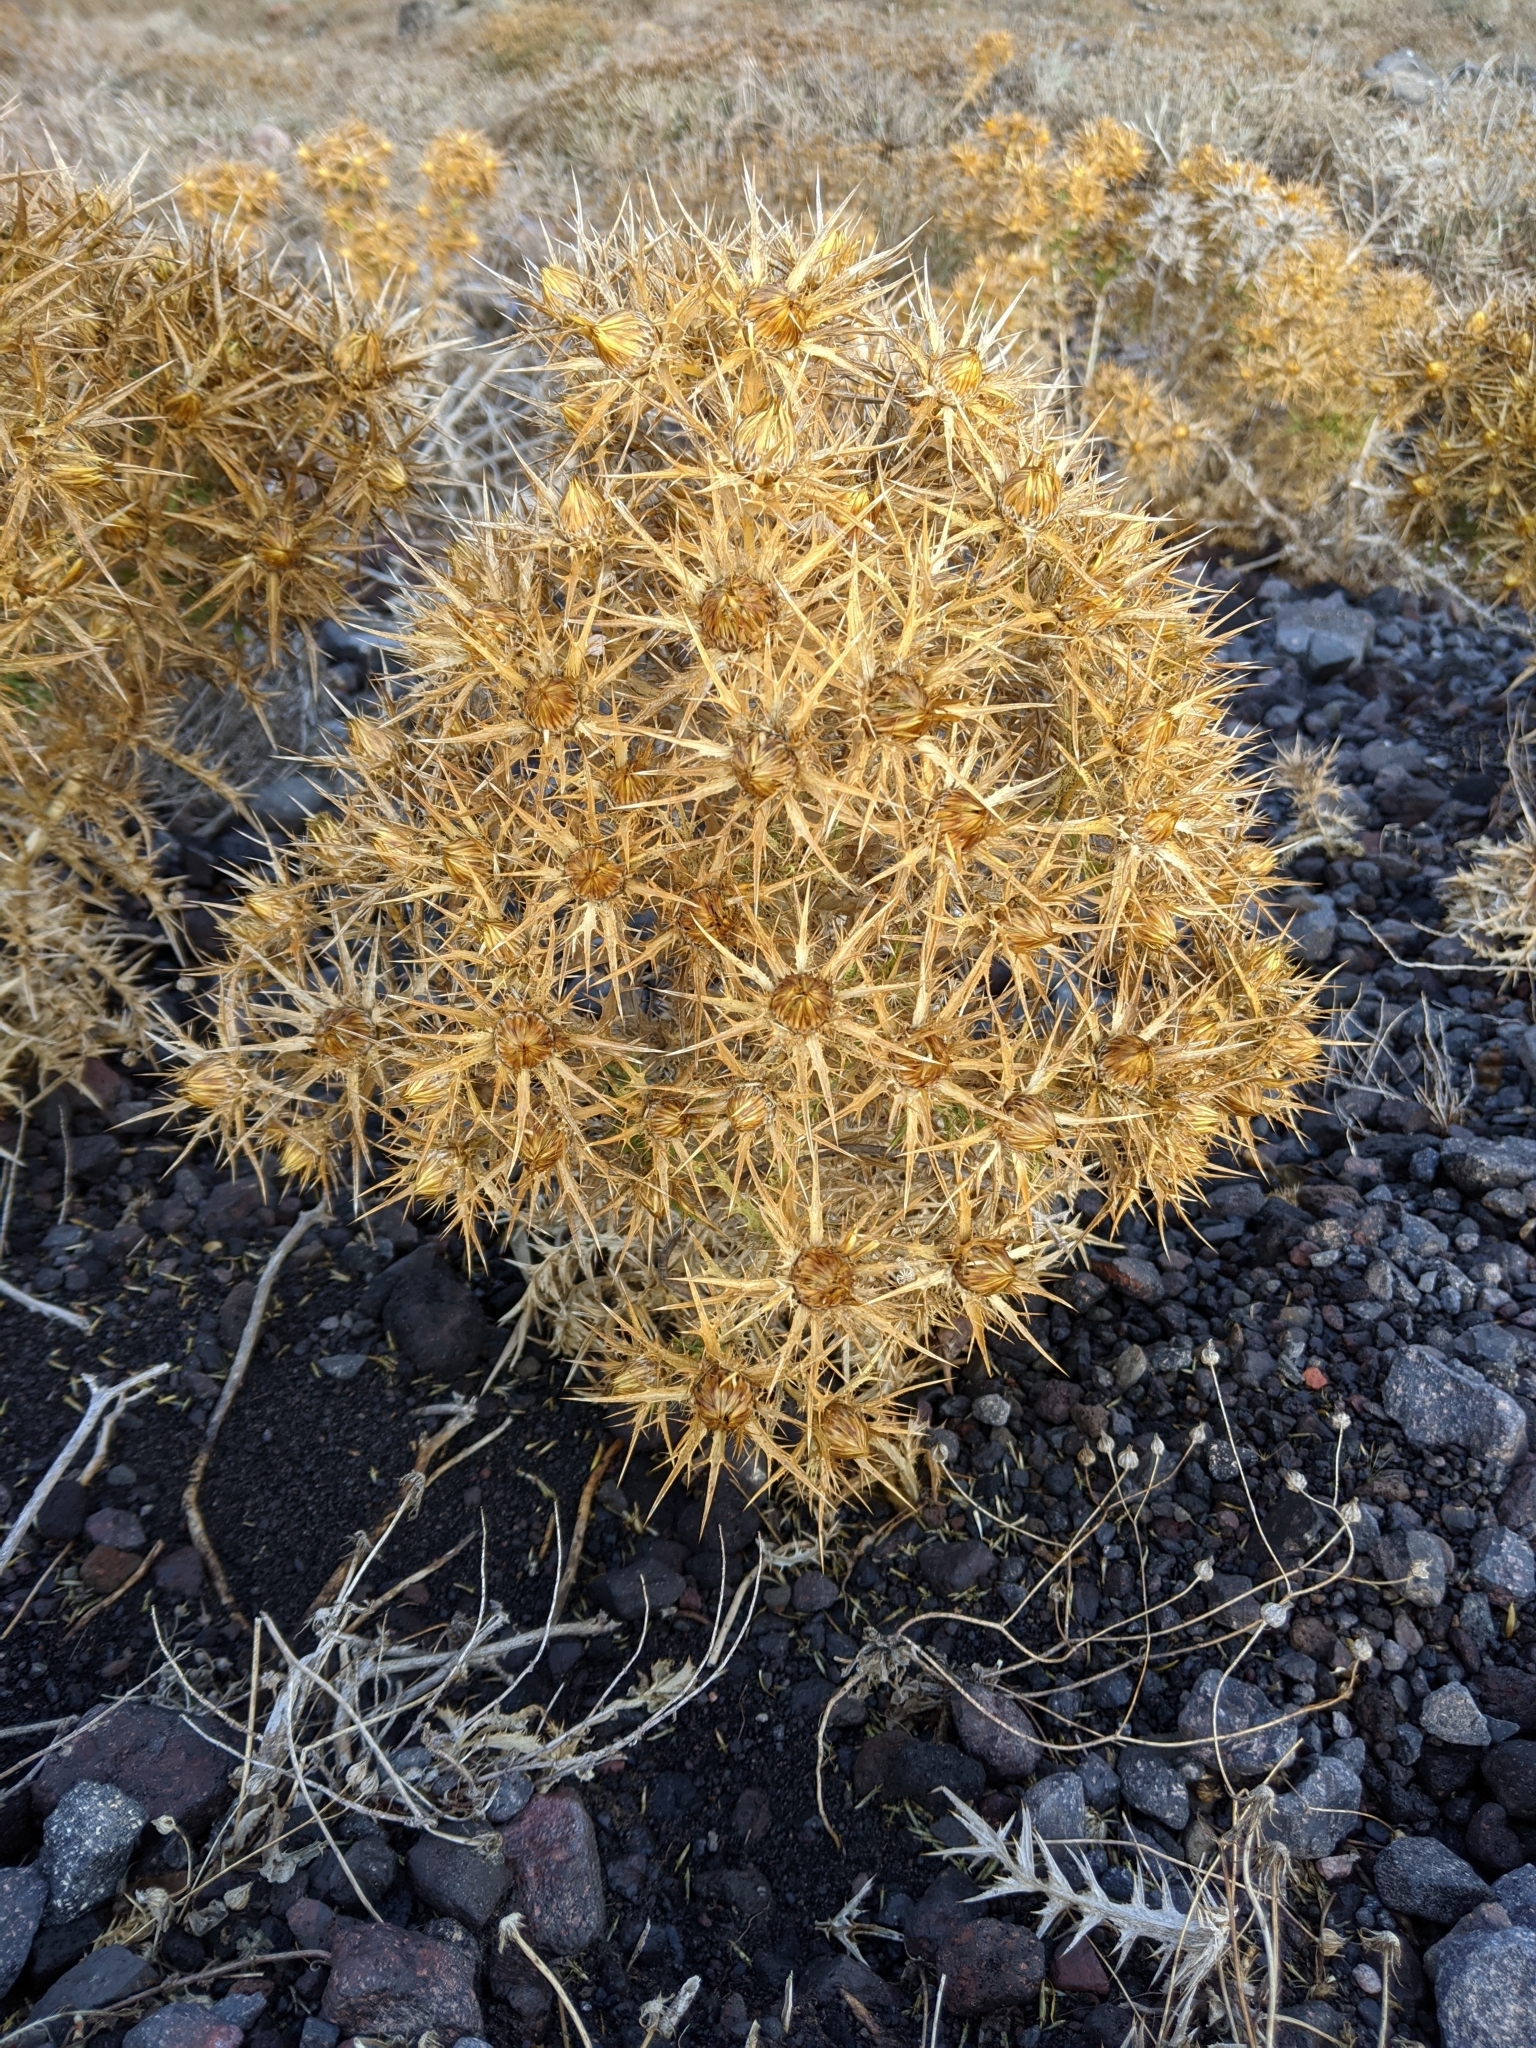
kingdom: Plantae
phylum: Tracheophyta
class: Magnoliopsida
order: Asterales
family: Asteraceae
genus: Carlina
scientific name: Carlina graeca
